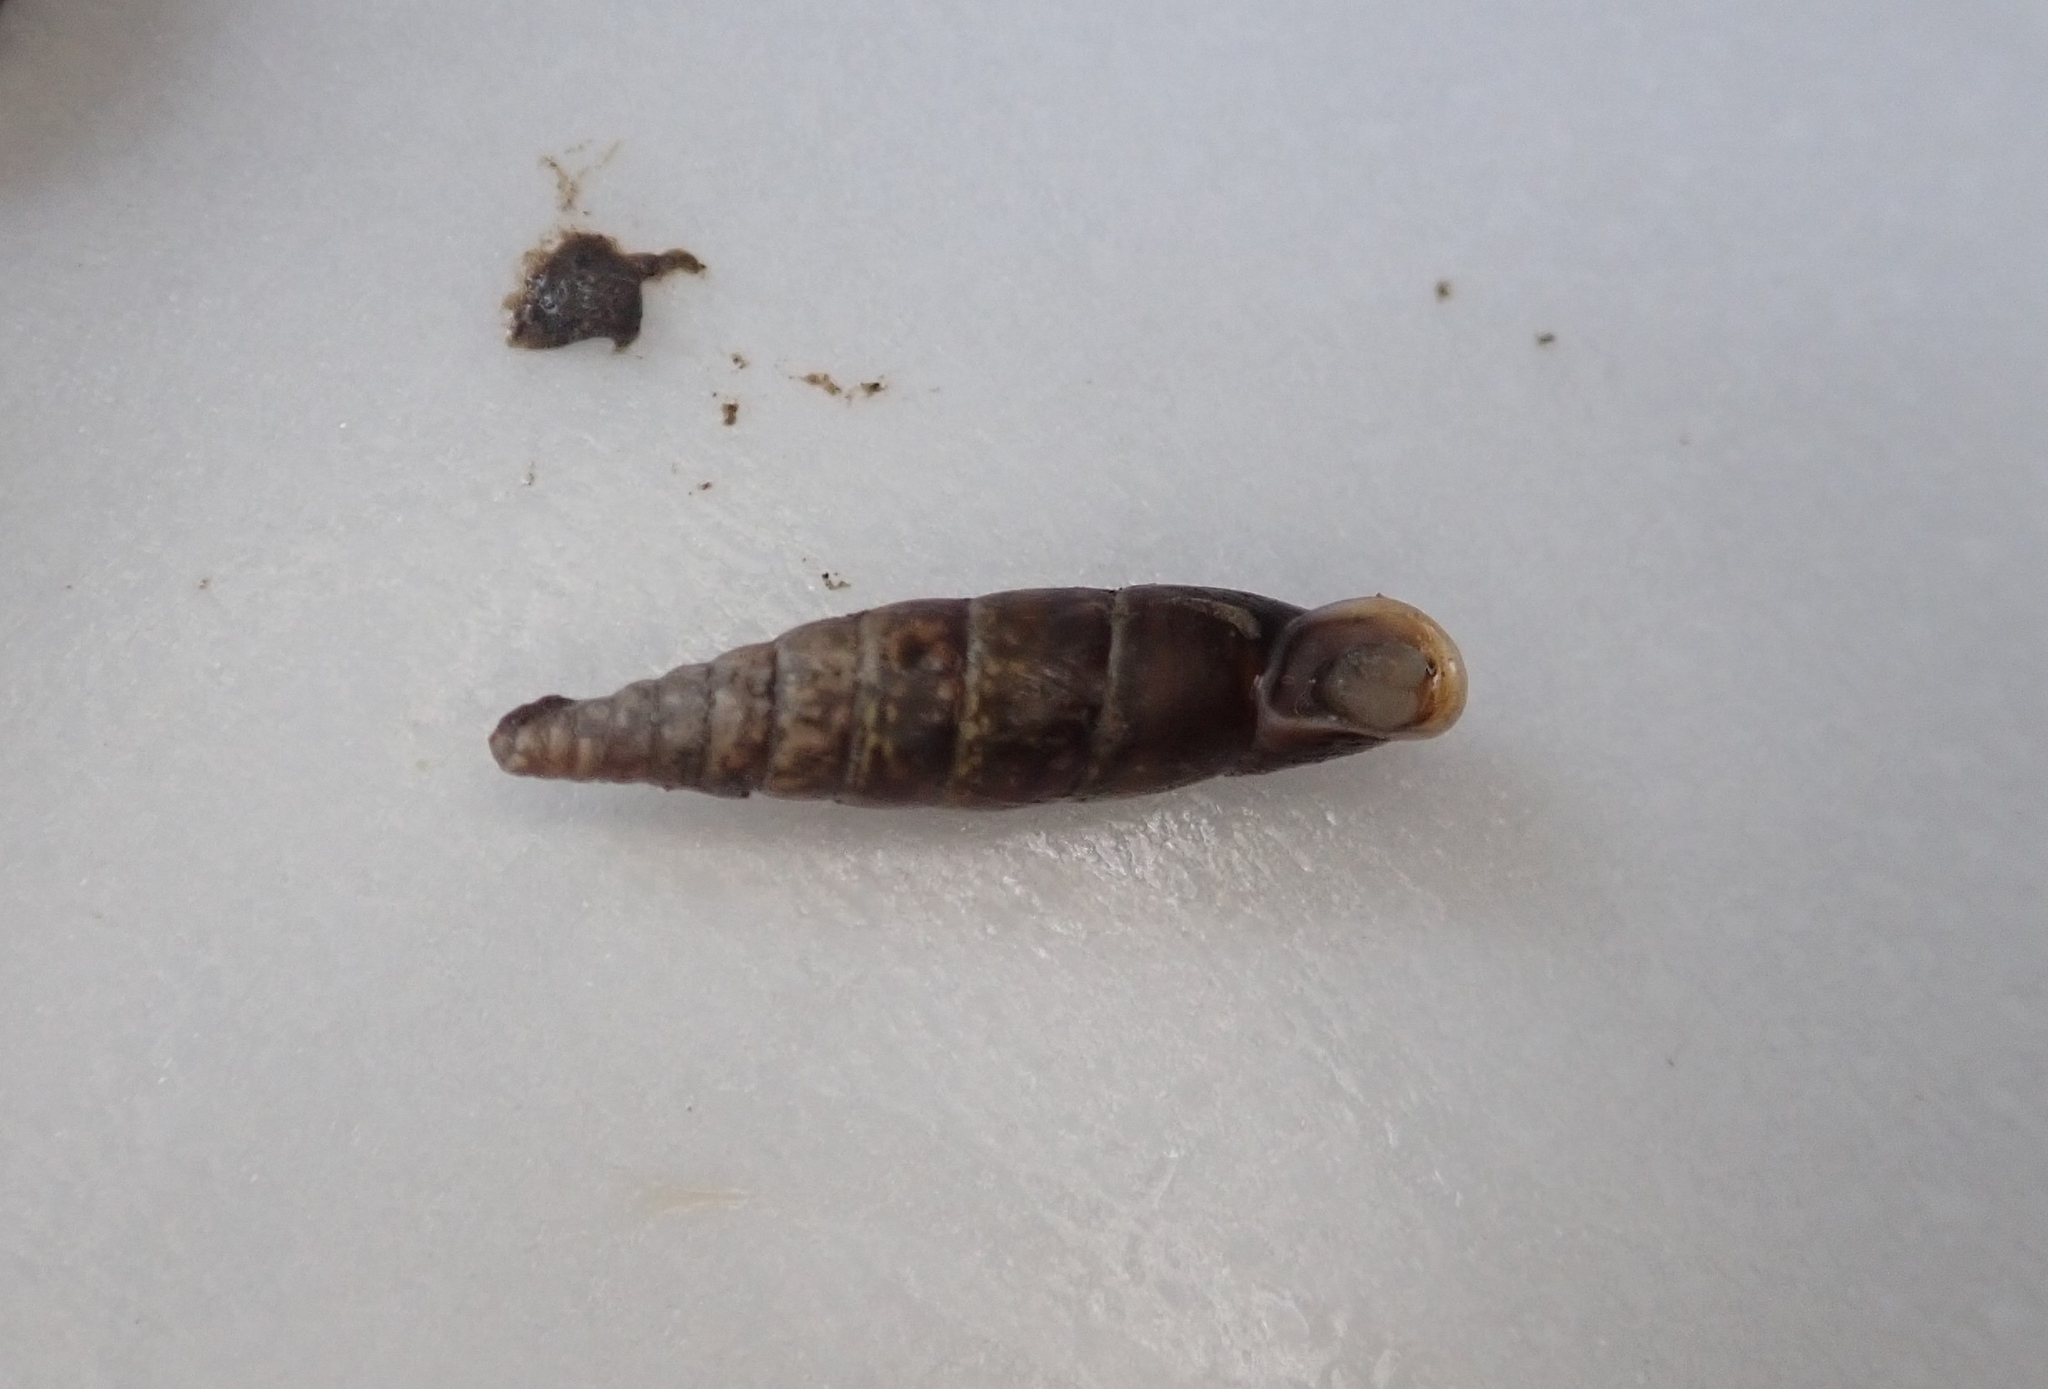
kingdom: Animalia
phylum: Mollusca
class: Gastropoda
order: Stylommatophora
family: Clausiliidae
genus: Cochlodina
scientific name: Cochlodina laminata
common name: Plaited door snail
